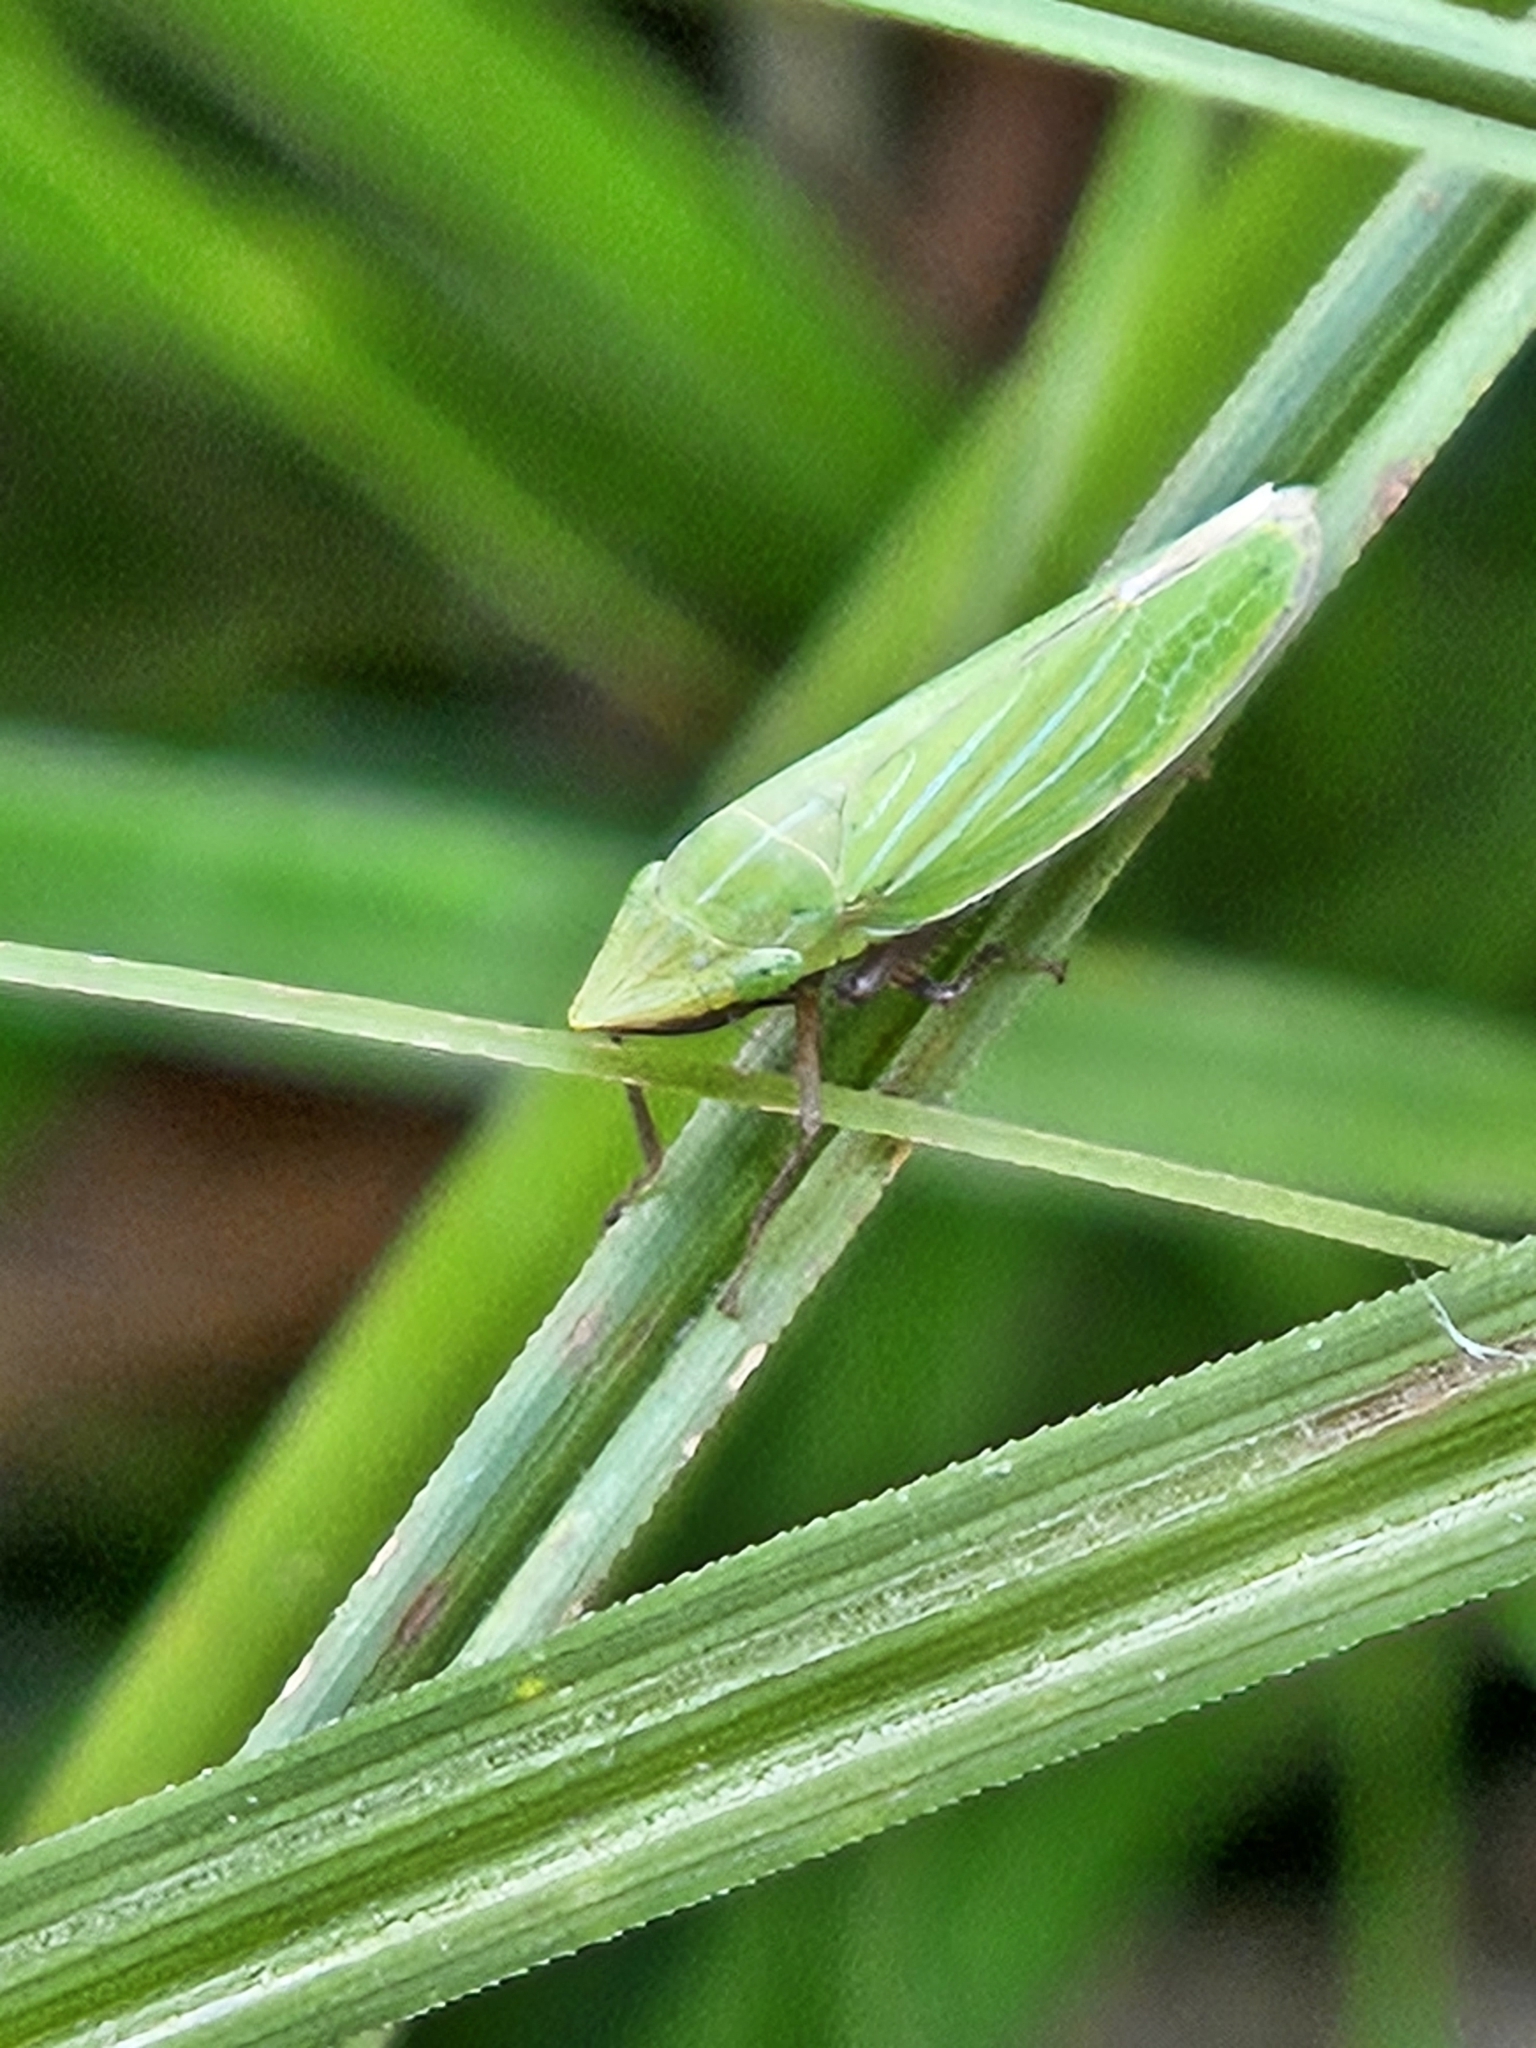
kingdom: Animalia
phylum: Arthropoda
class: Insecta
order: Hemiptera
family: Cicadellidae
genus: Draeculacephala
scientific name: Draeculacephala robinsoni
